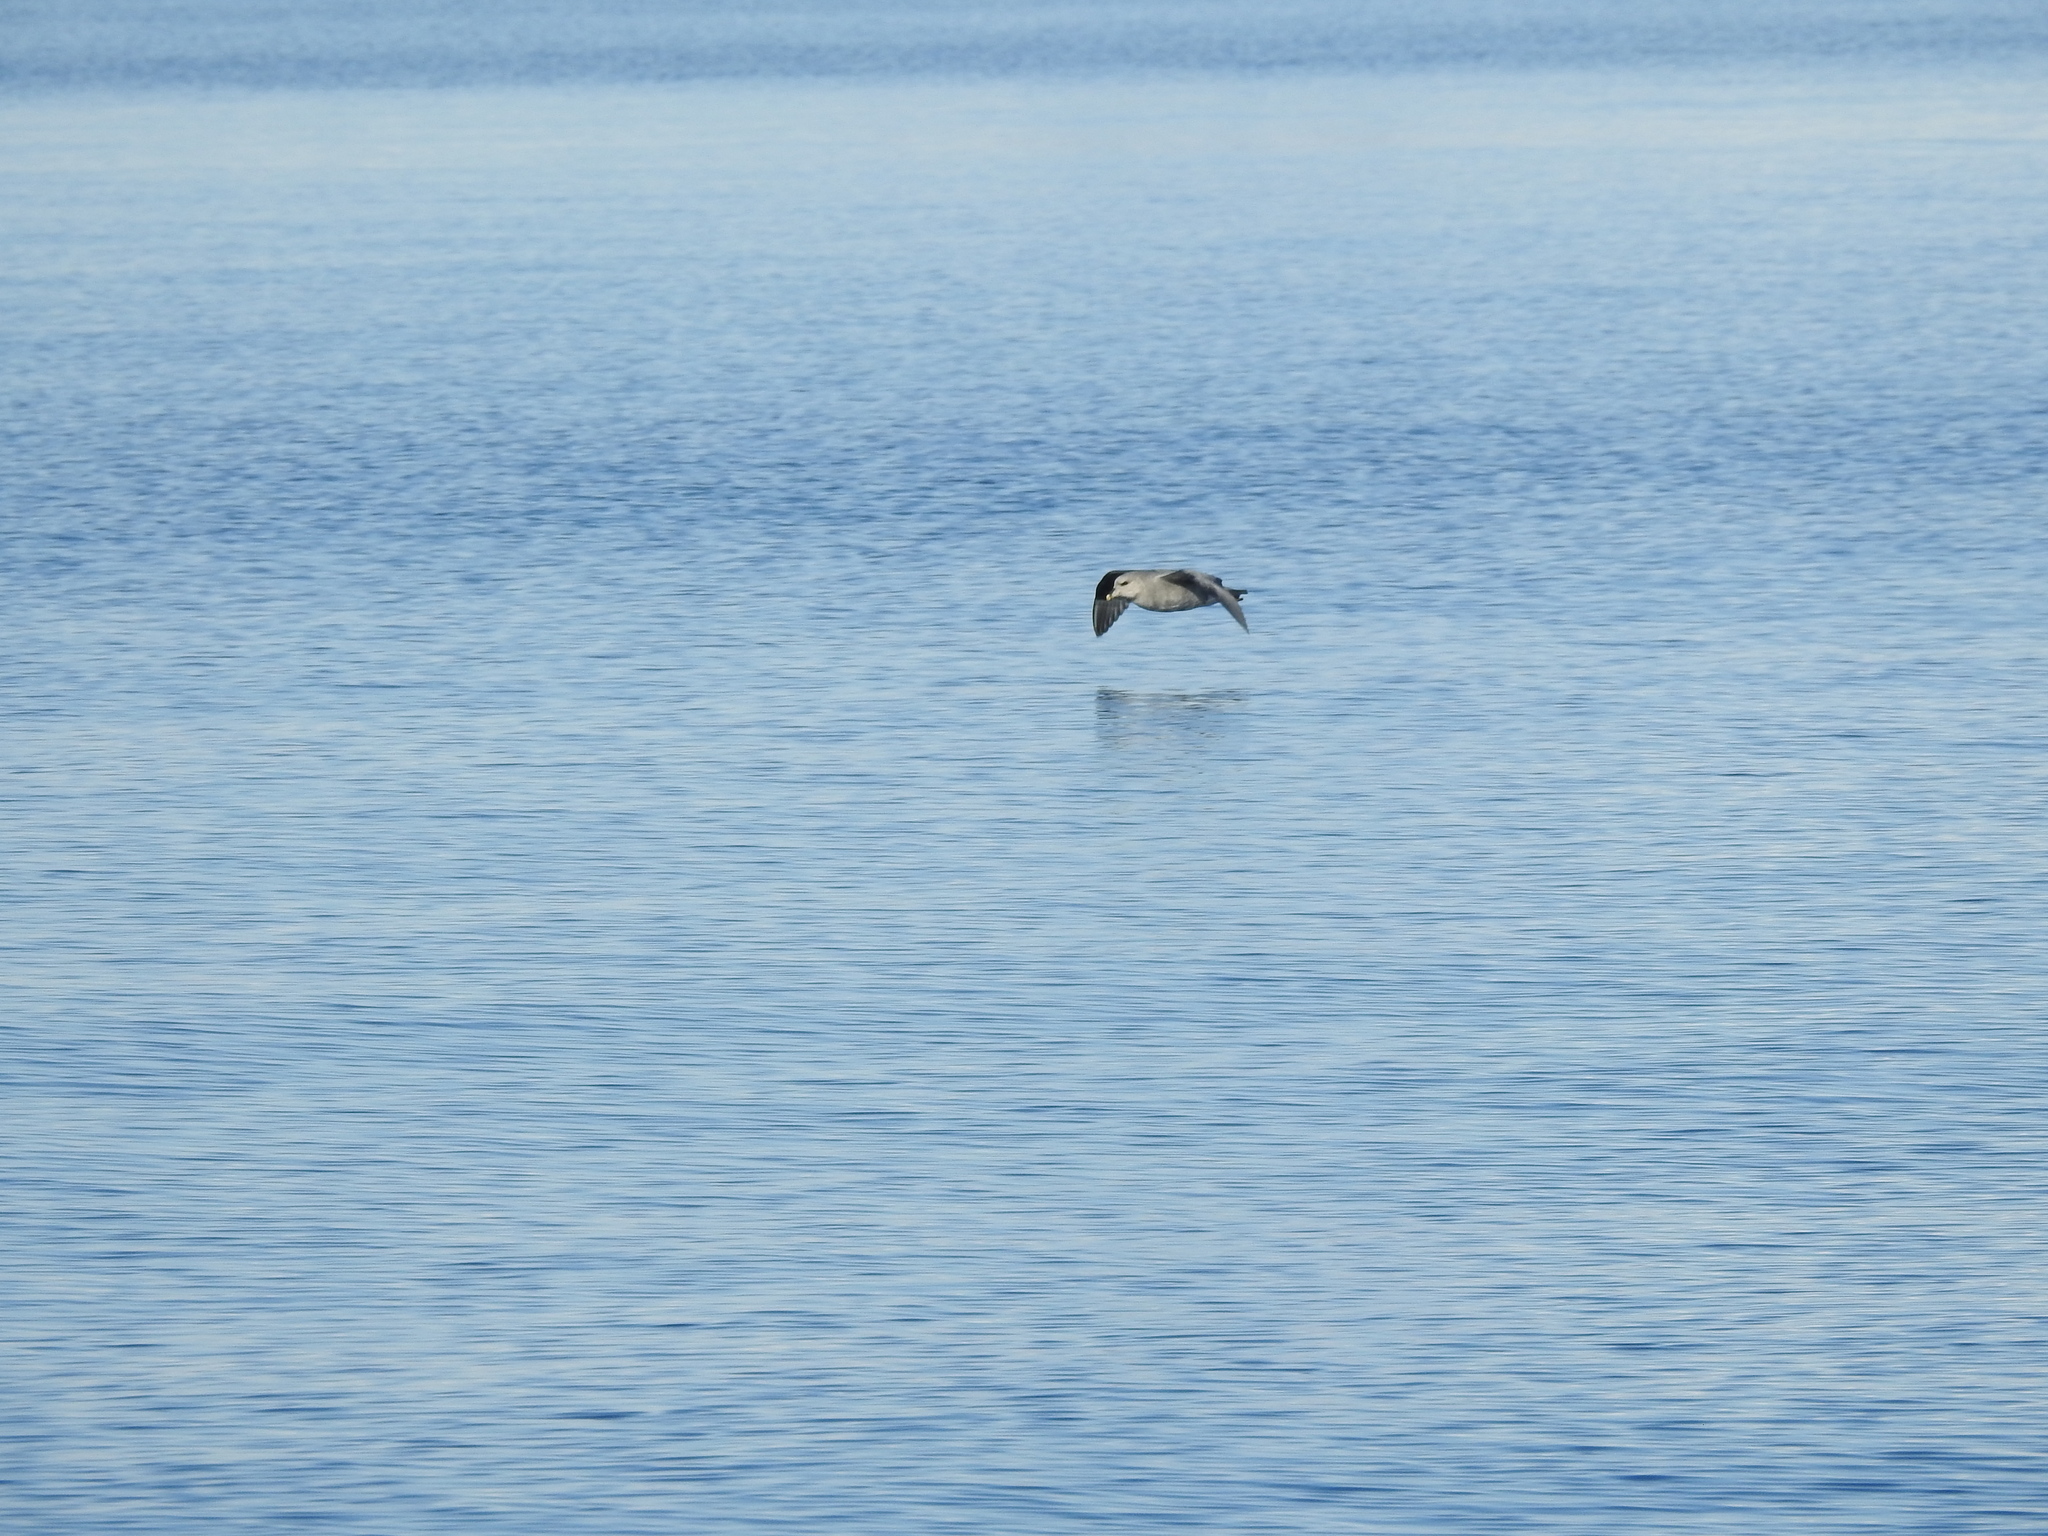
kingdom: Animalia
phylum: Chordata
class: Aves
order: Procellariiformes
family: Procellariidae
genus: Fulmarus
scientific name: Fulmarus glacialis
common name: Northern fulmar
